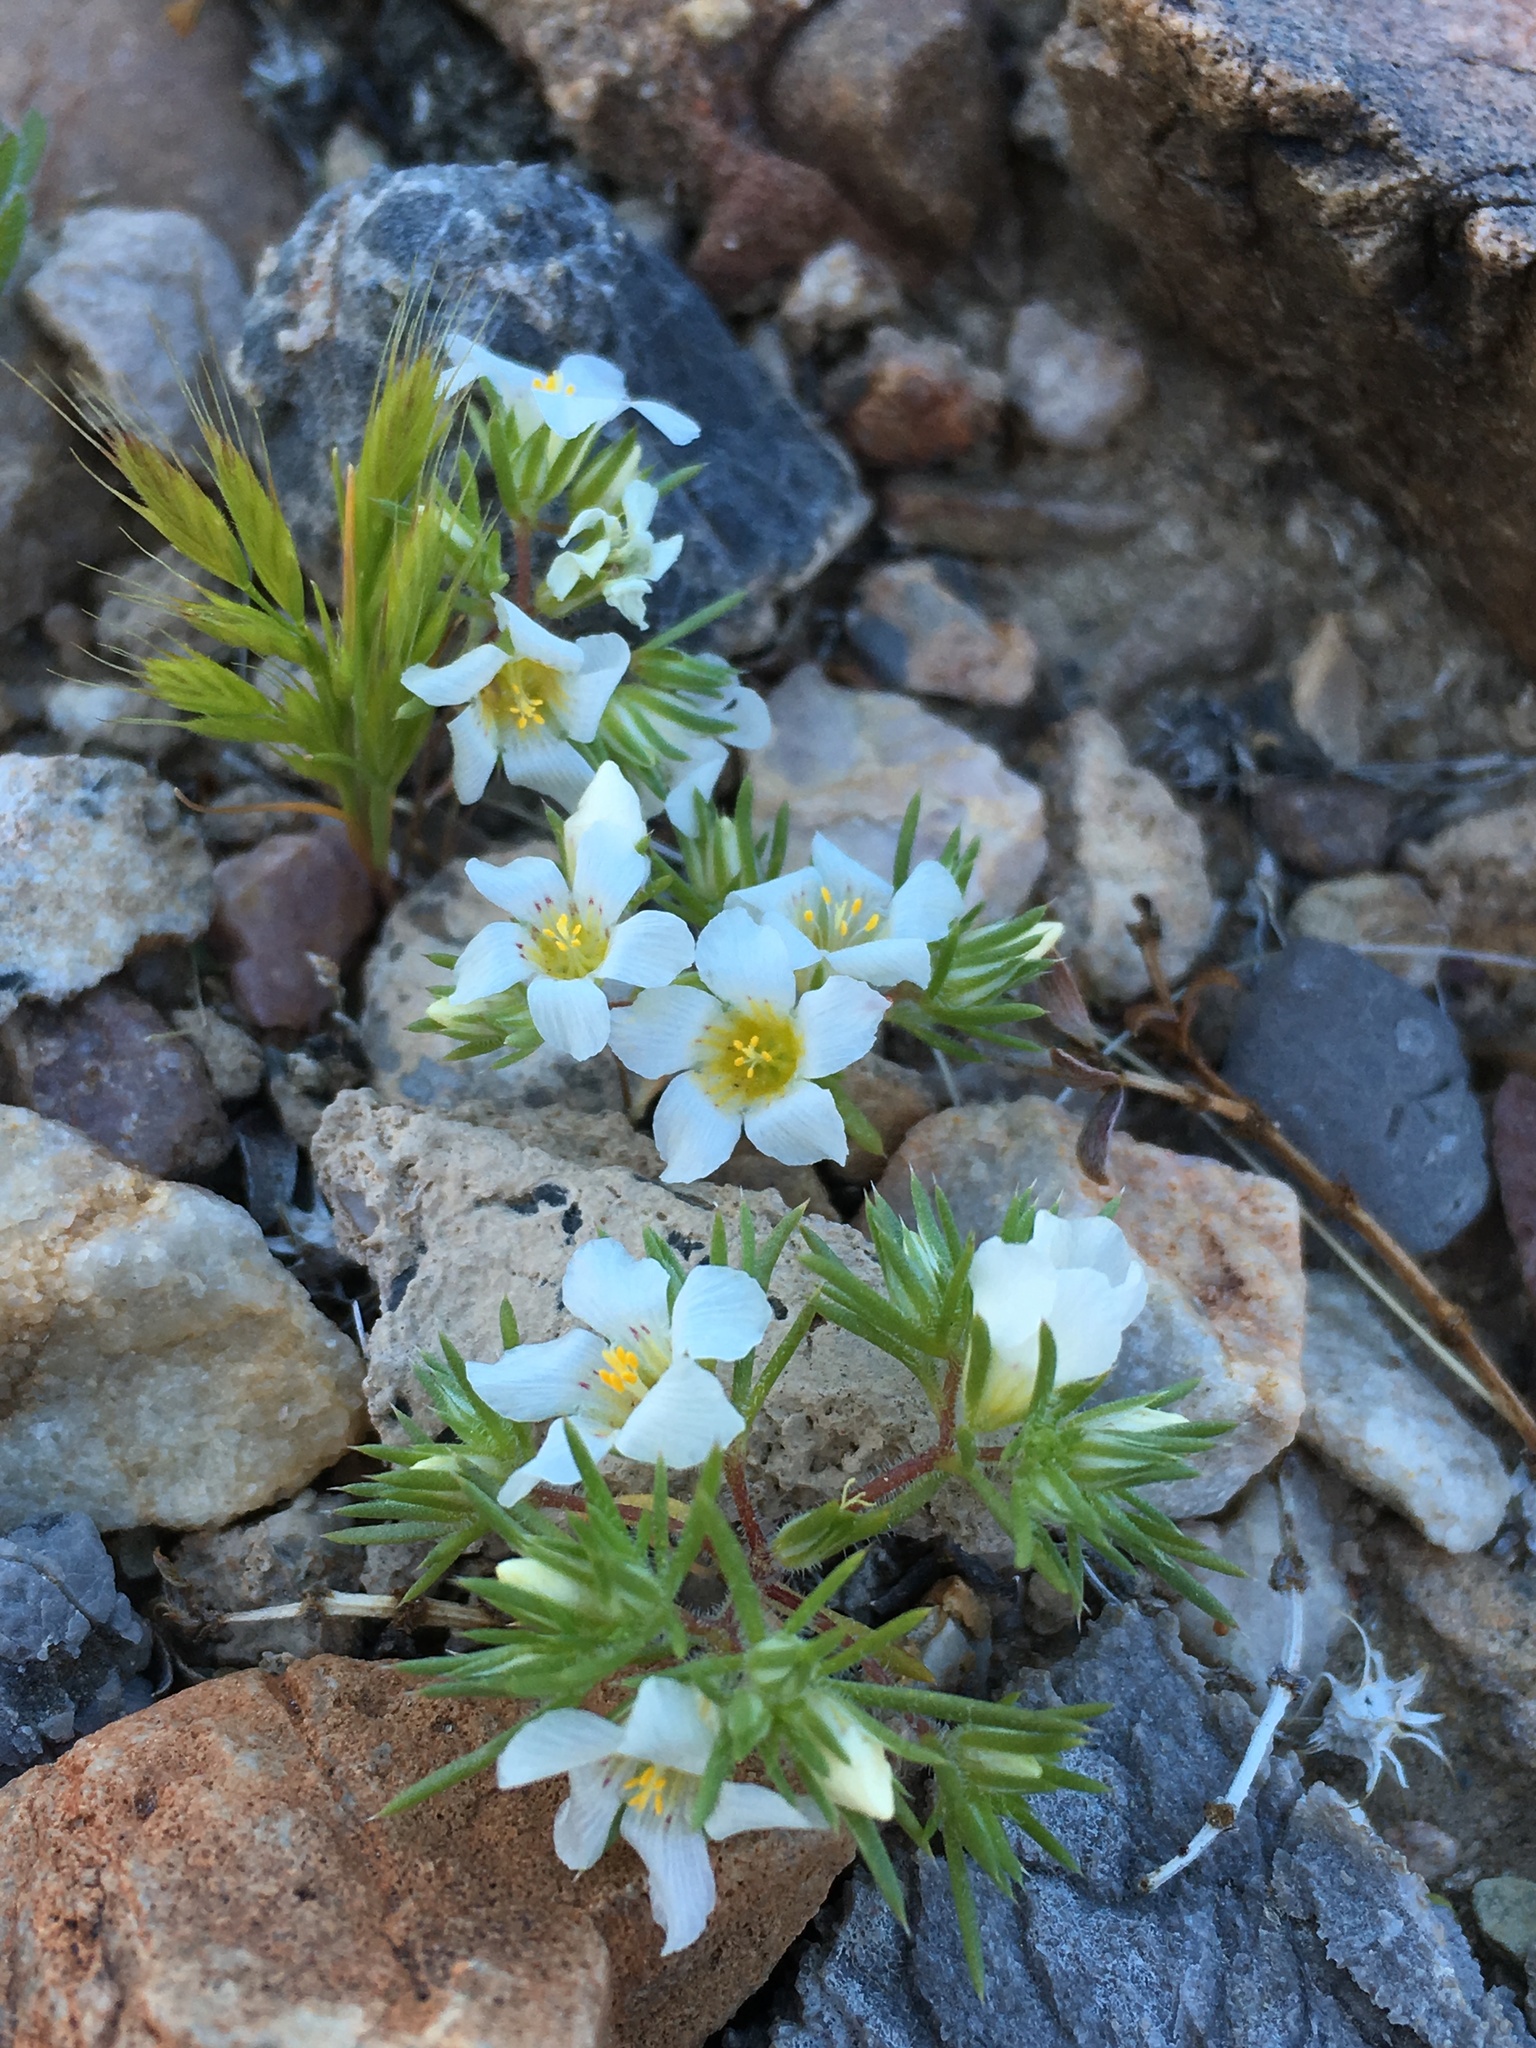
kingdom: Plantae
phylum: Tracheophyta
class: Magnoliopsida
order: Ericales
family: Polemoniaceae
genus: Linanthus
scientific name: Linanthus demissus
